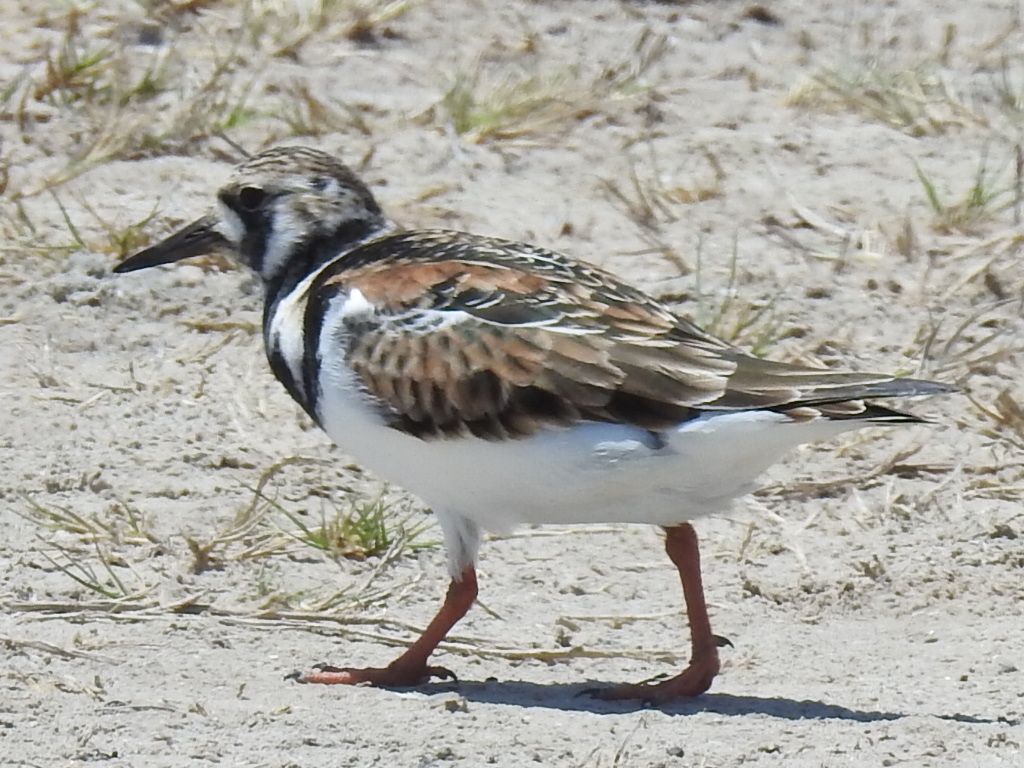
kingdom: Animalia
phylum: Chordata
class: Aves
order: Charadriiformes
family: Scolopacidae
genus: Arenaria
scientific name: Arenaria interpres
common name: Ruddy turnstone
